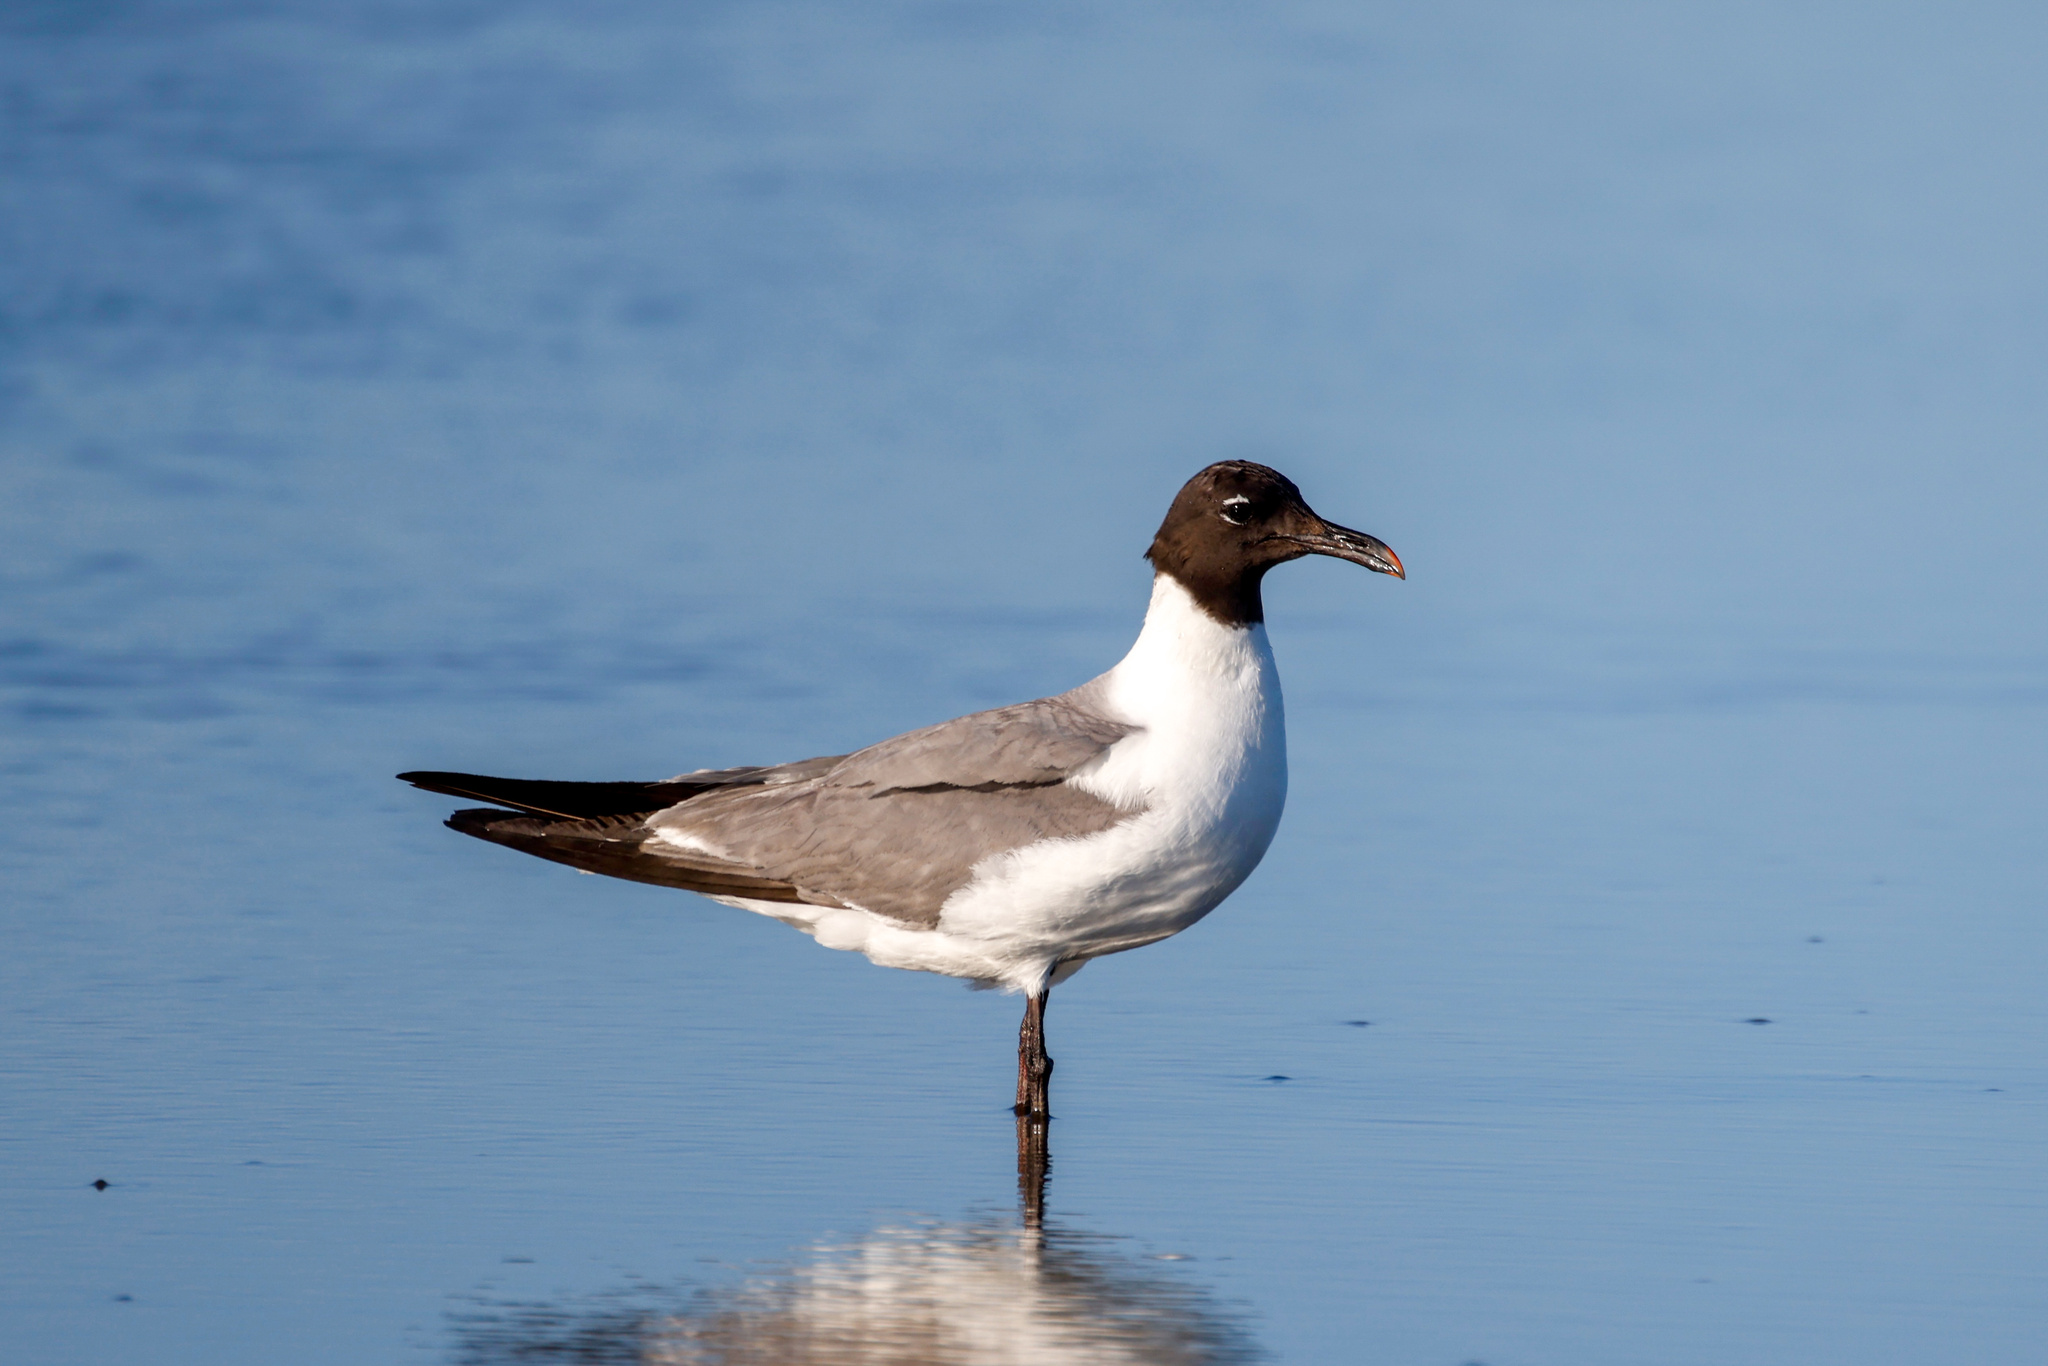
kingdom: Animalia
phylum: Chordata
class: Aves
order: Charadriiformes
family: Laridae
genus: Leucophaeus
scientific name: Leucophaeus atricilla
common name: Laughing gull
